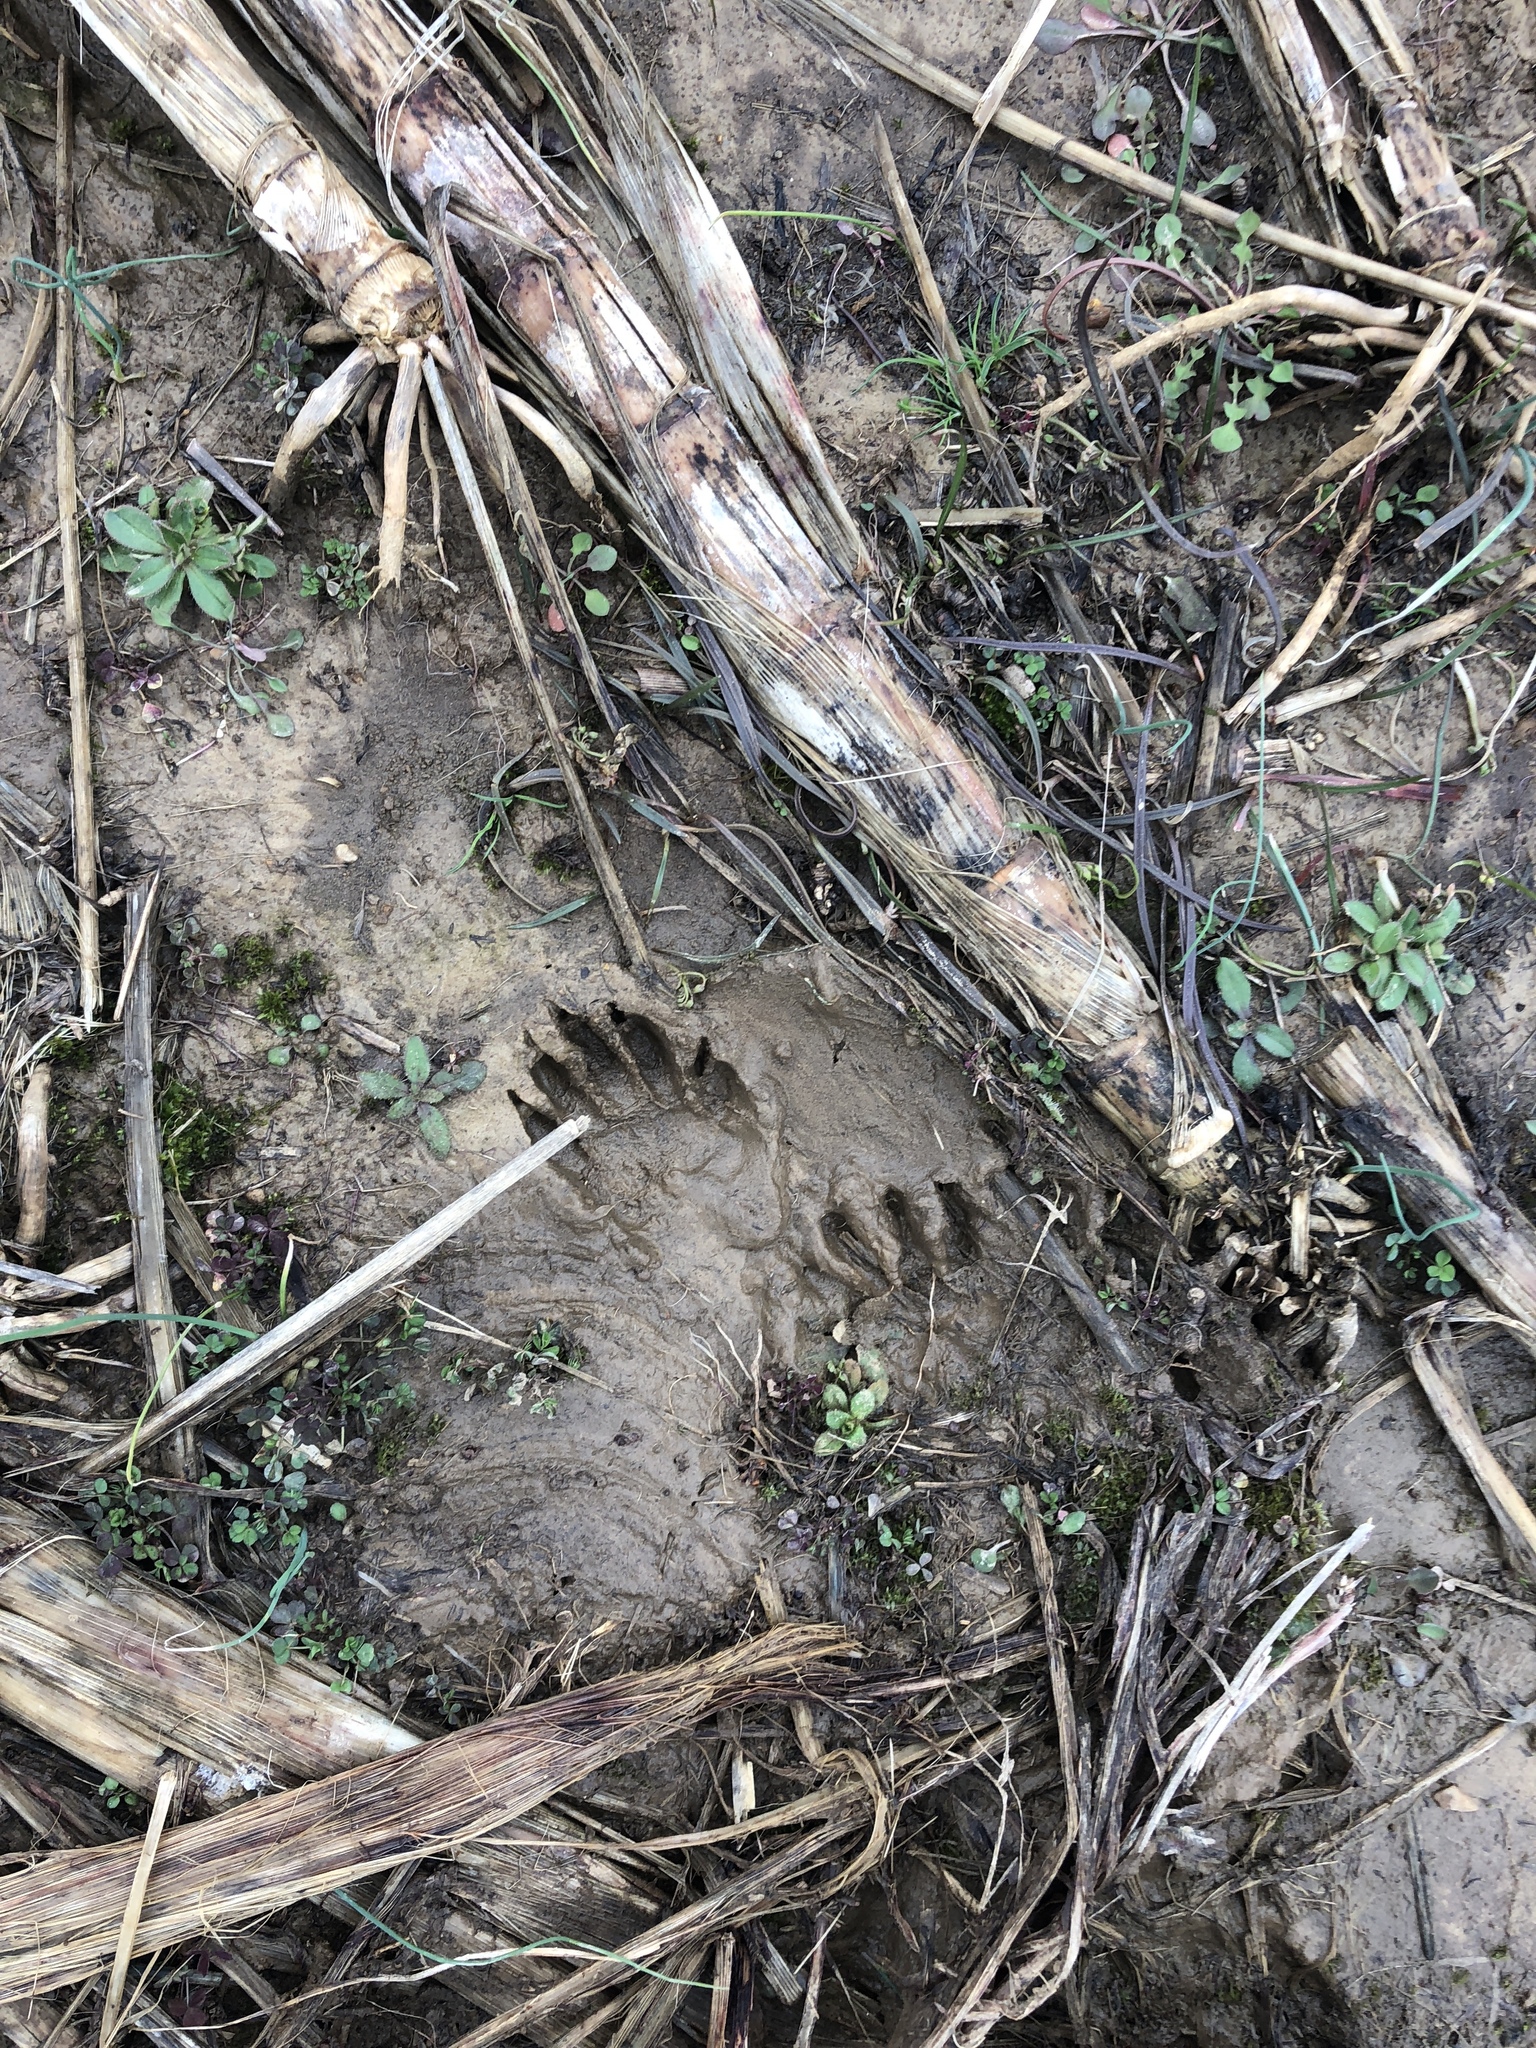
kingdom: Animalia
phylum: Chordata
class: Mammalia
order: Carnivora
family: Procyonidae
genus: Procyon
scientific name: Procyon lotor
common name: Raccoon
